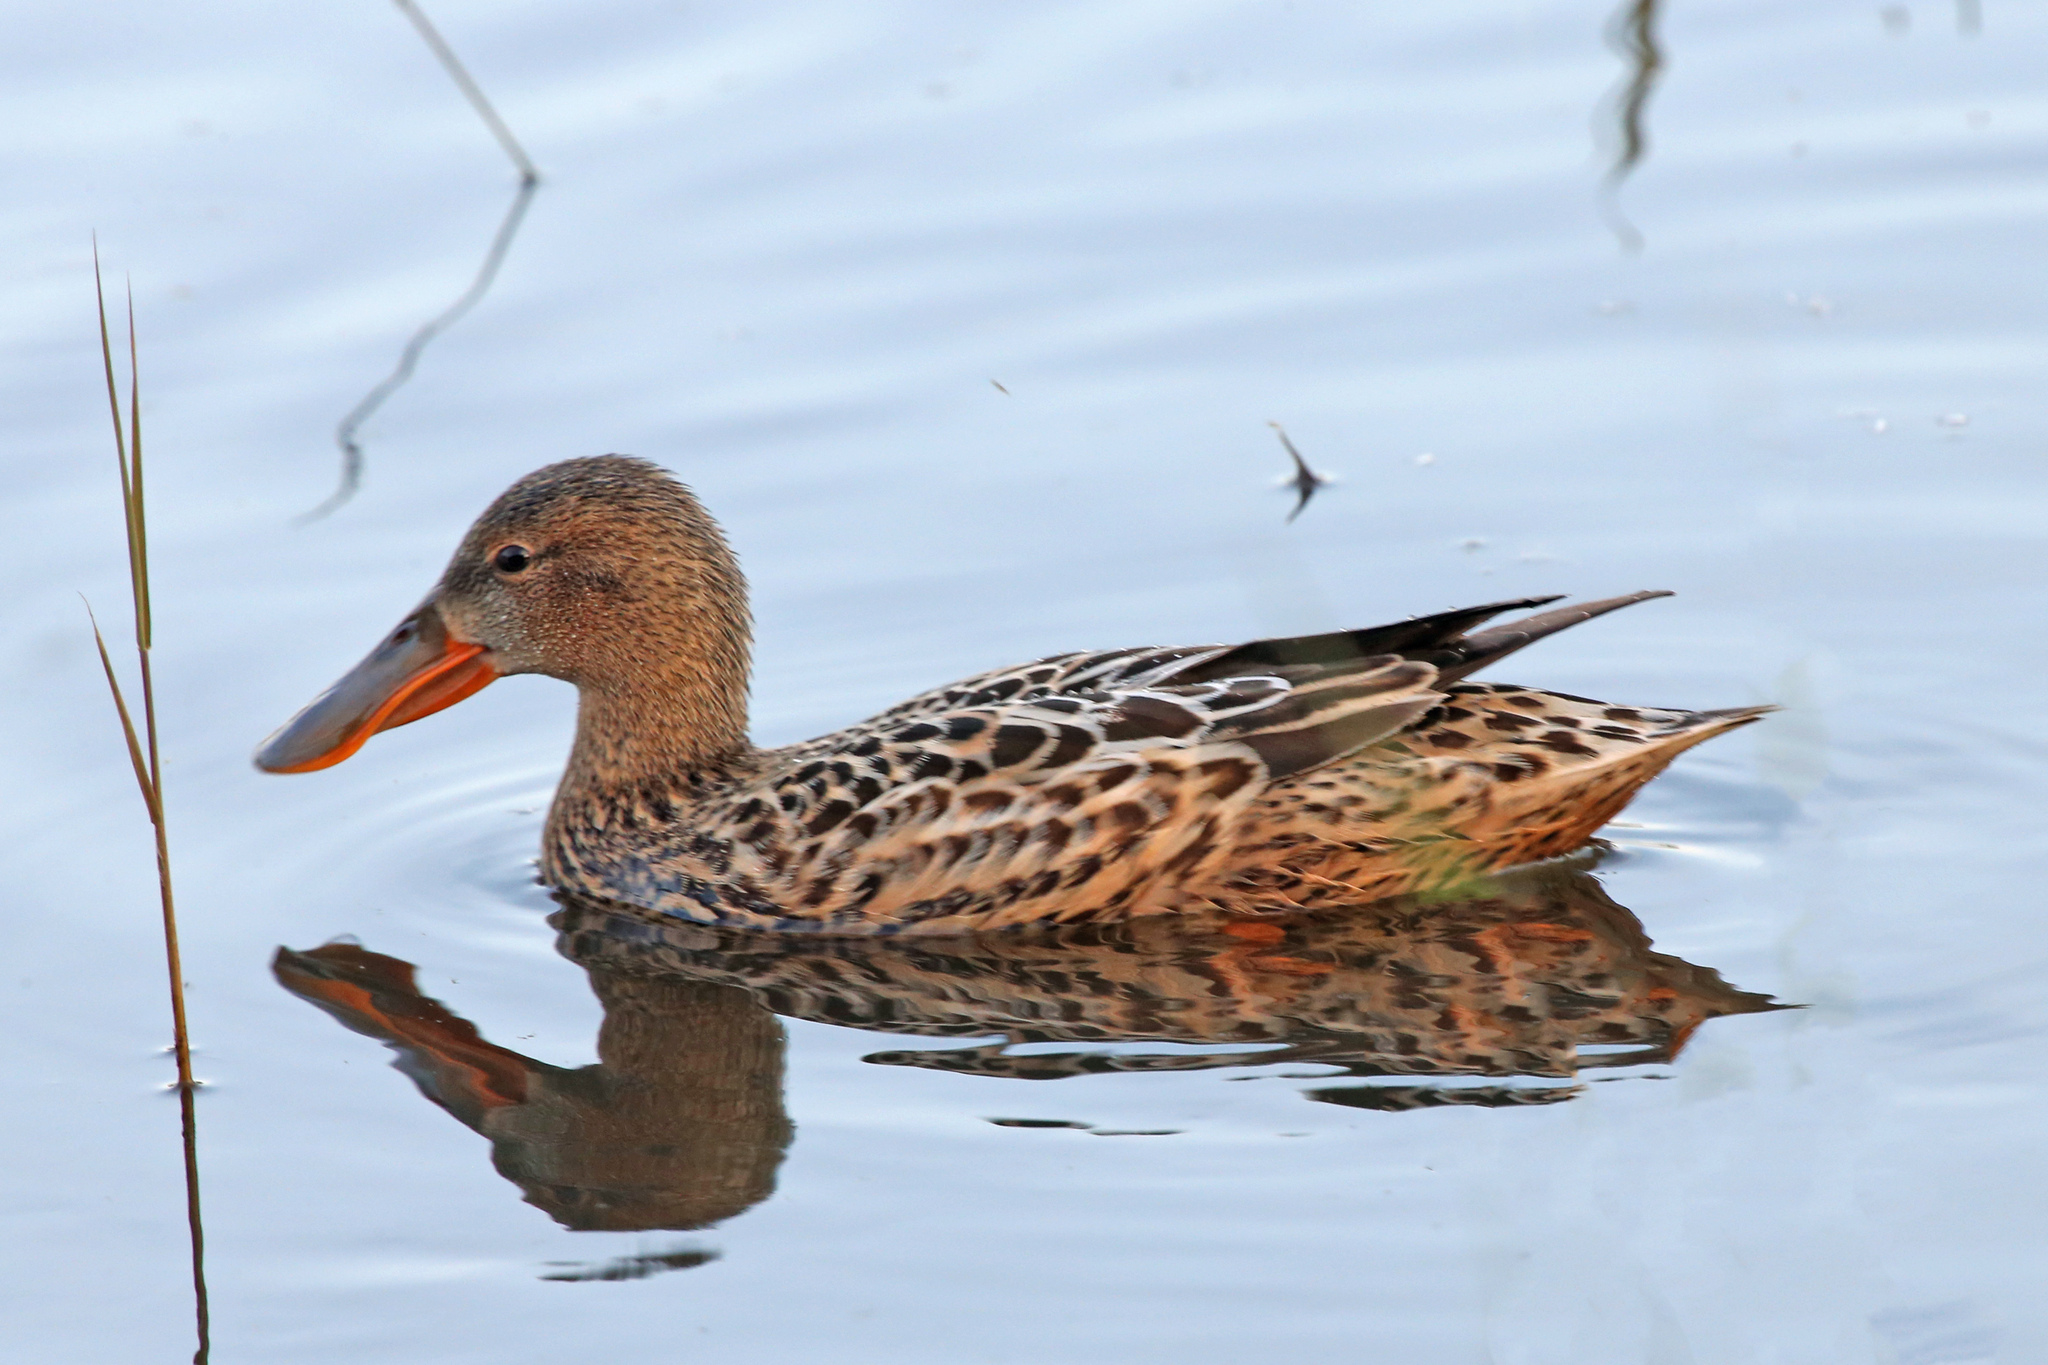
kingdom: Animalia
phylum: Chordata
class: Aves
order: Anseriformes
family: Anatidae
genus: Spatula
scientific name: Spatula clypeata
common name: Northern shoveler
